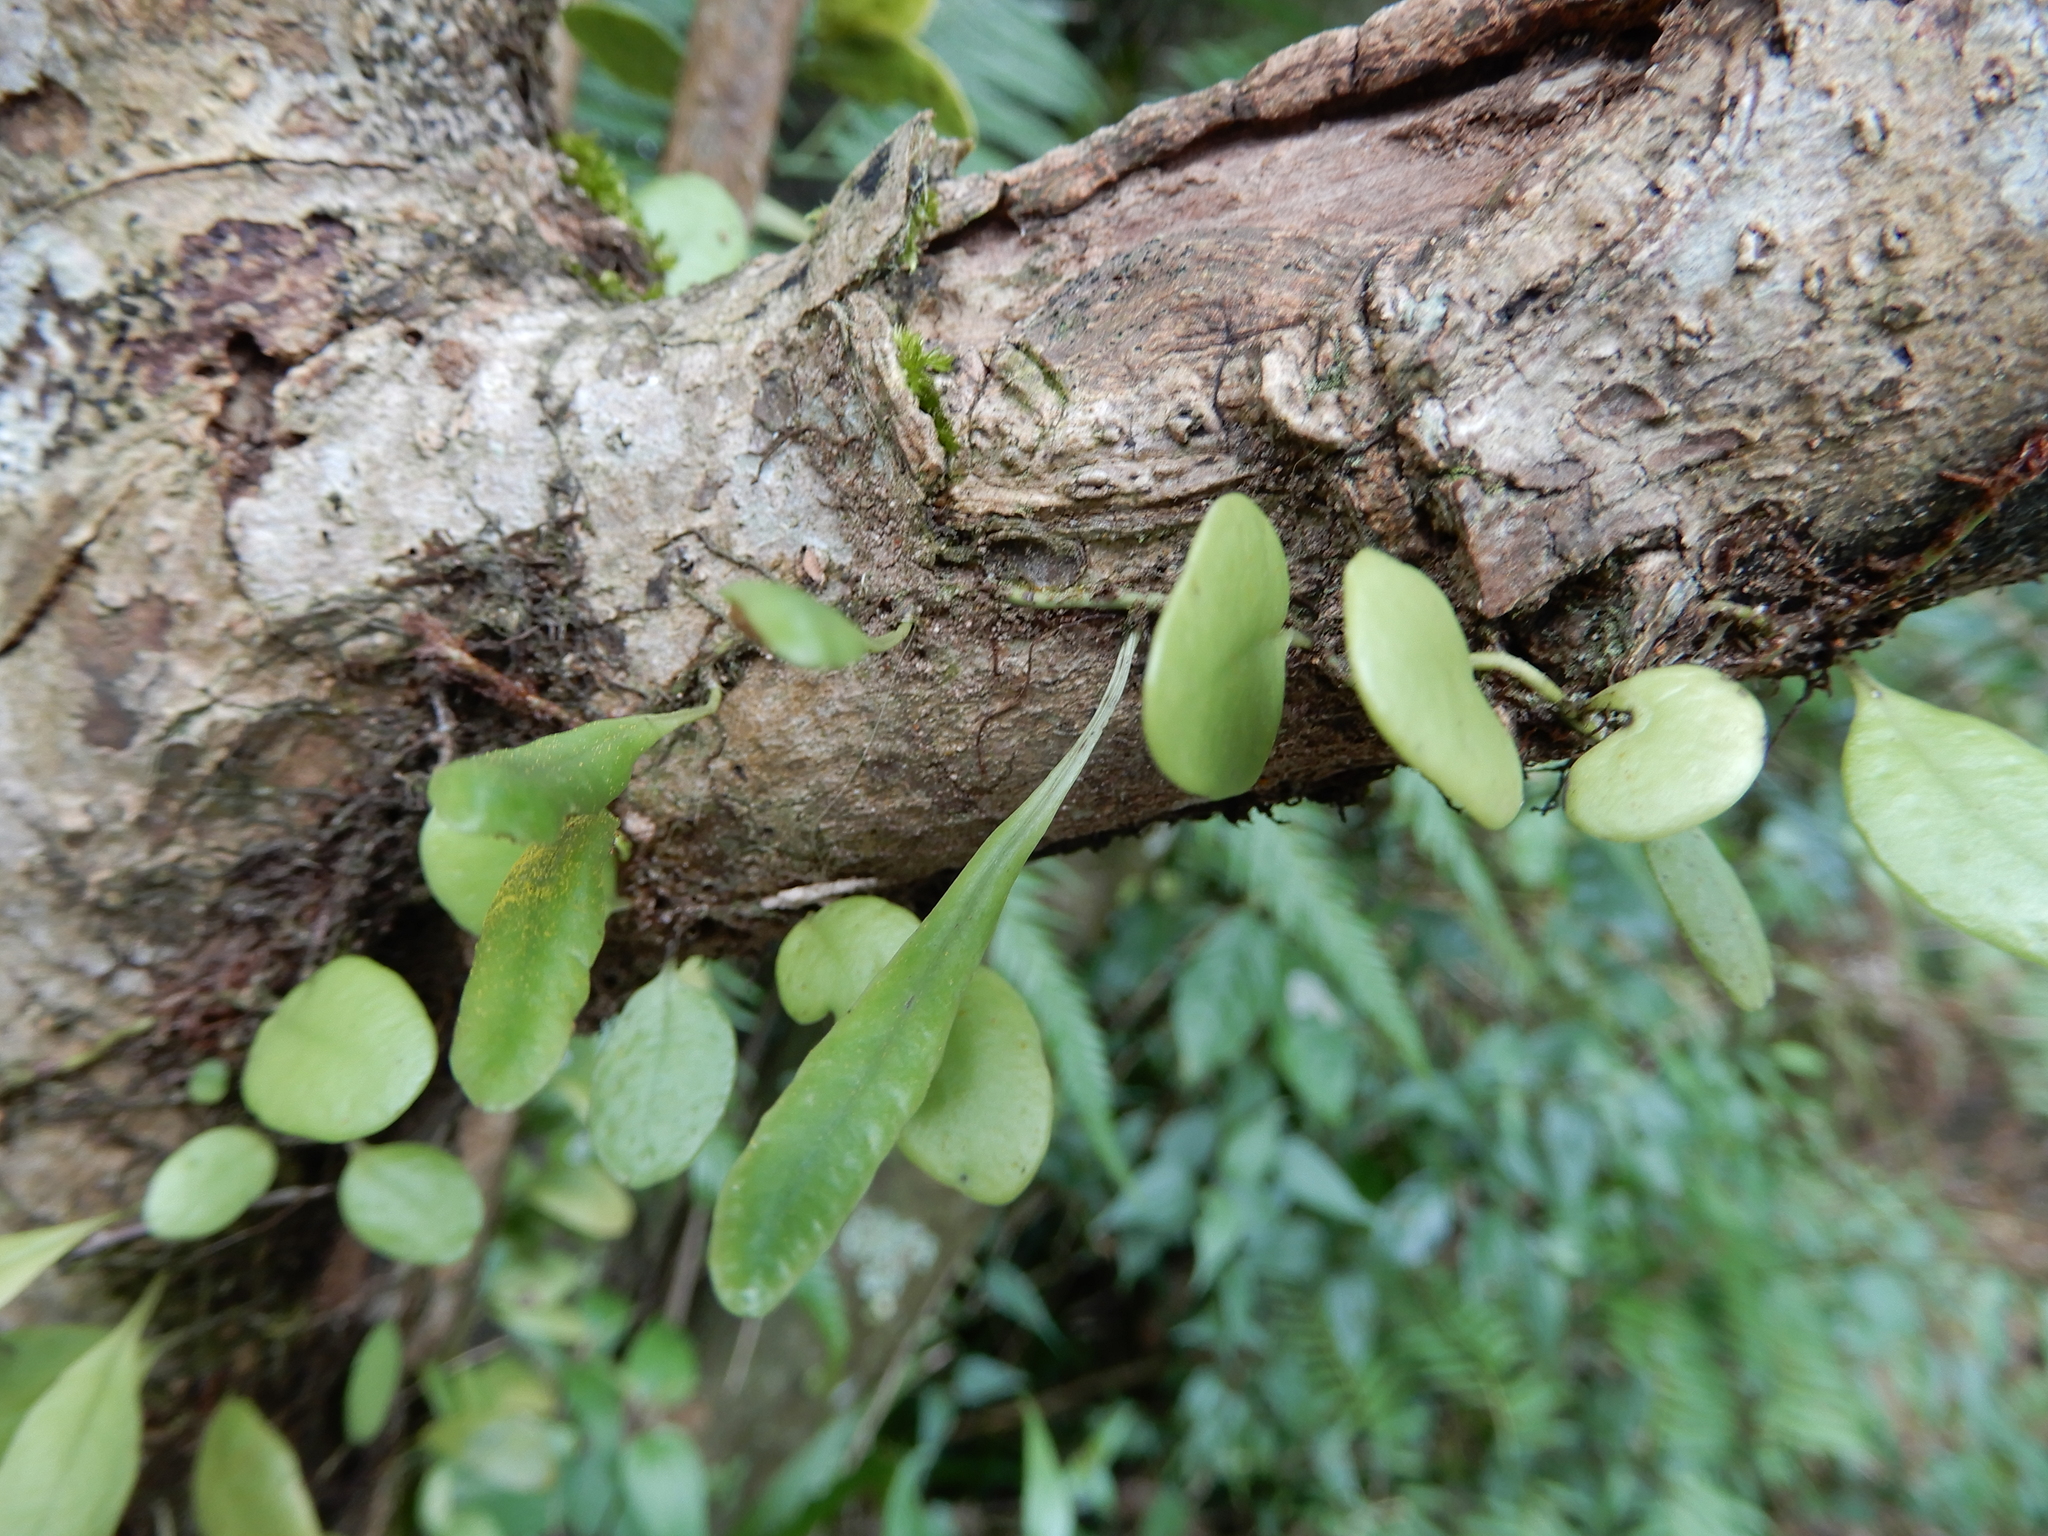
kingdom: Plantae
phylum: Tracheophyta
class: Polypodiopsida
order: Polypodiales
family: Polypodiaceae
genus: Lepisorus
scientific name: Lepisorus microphyllus
